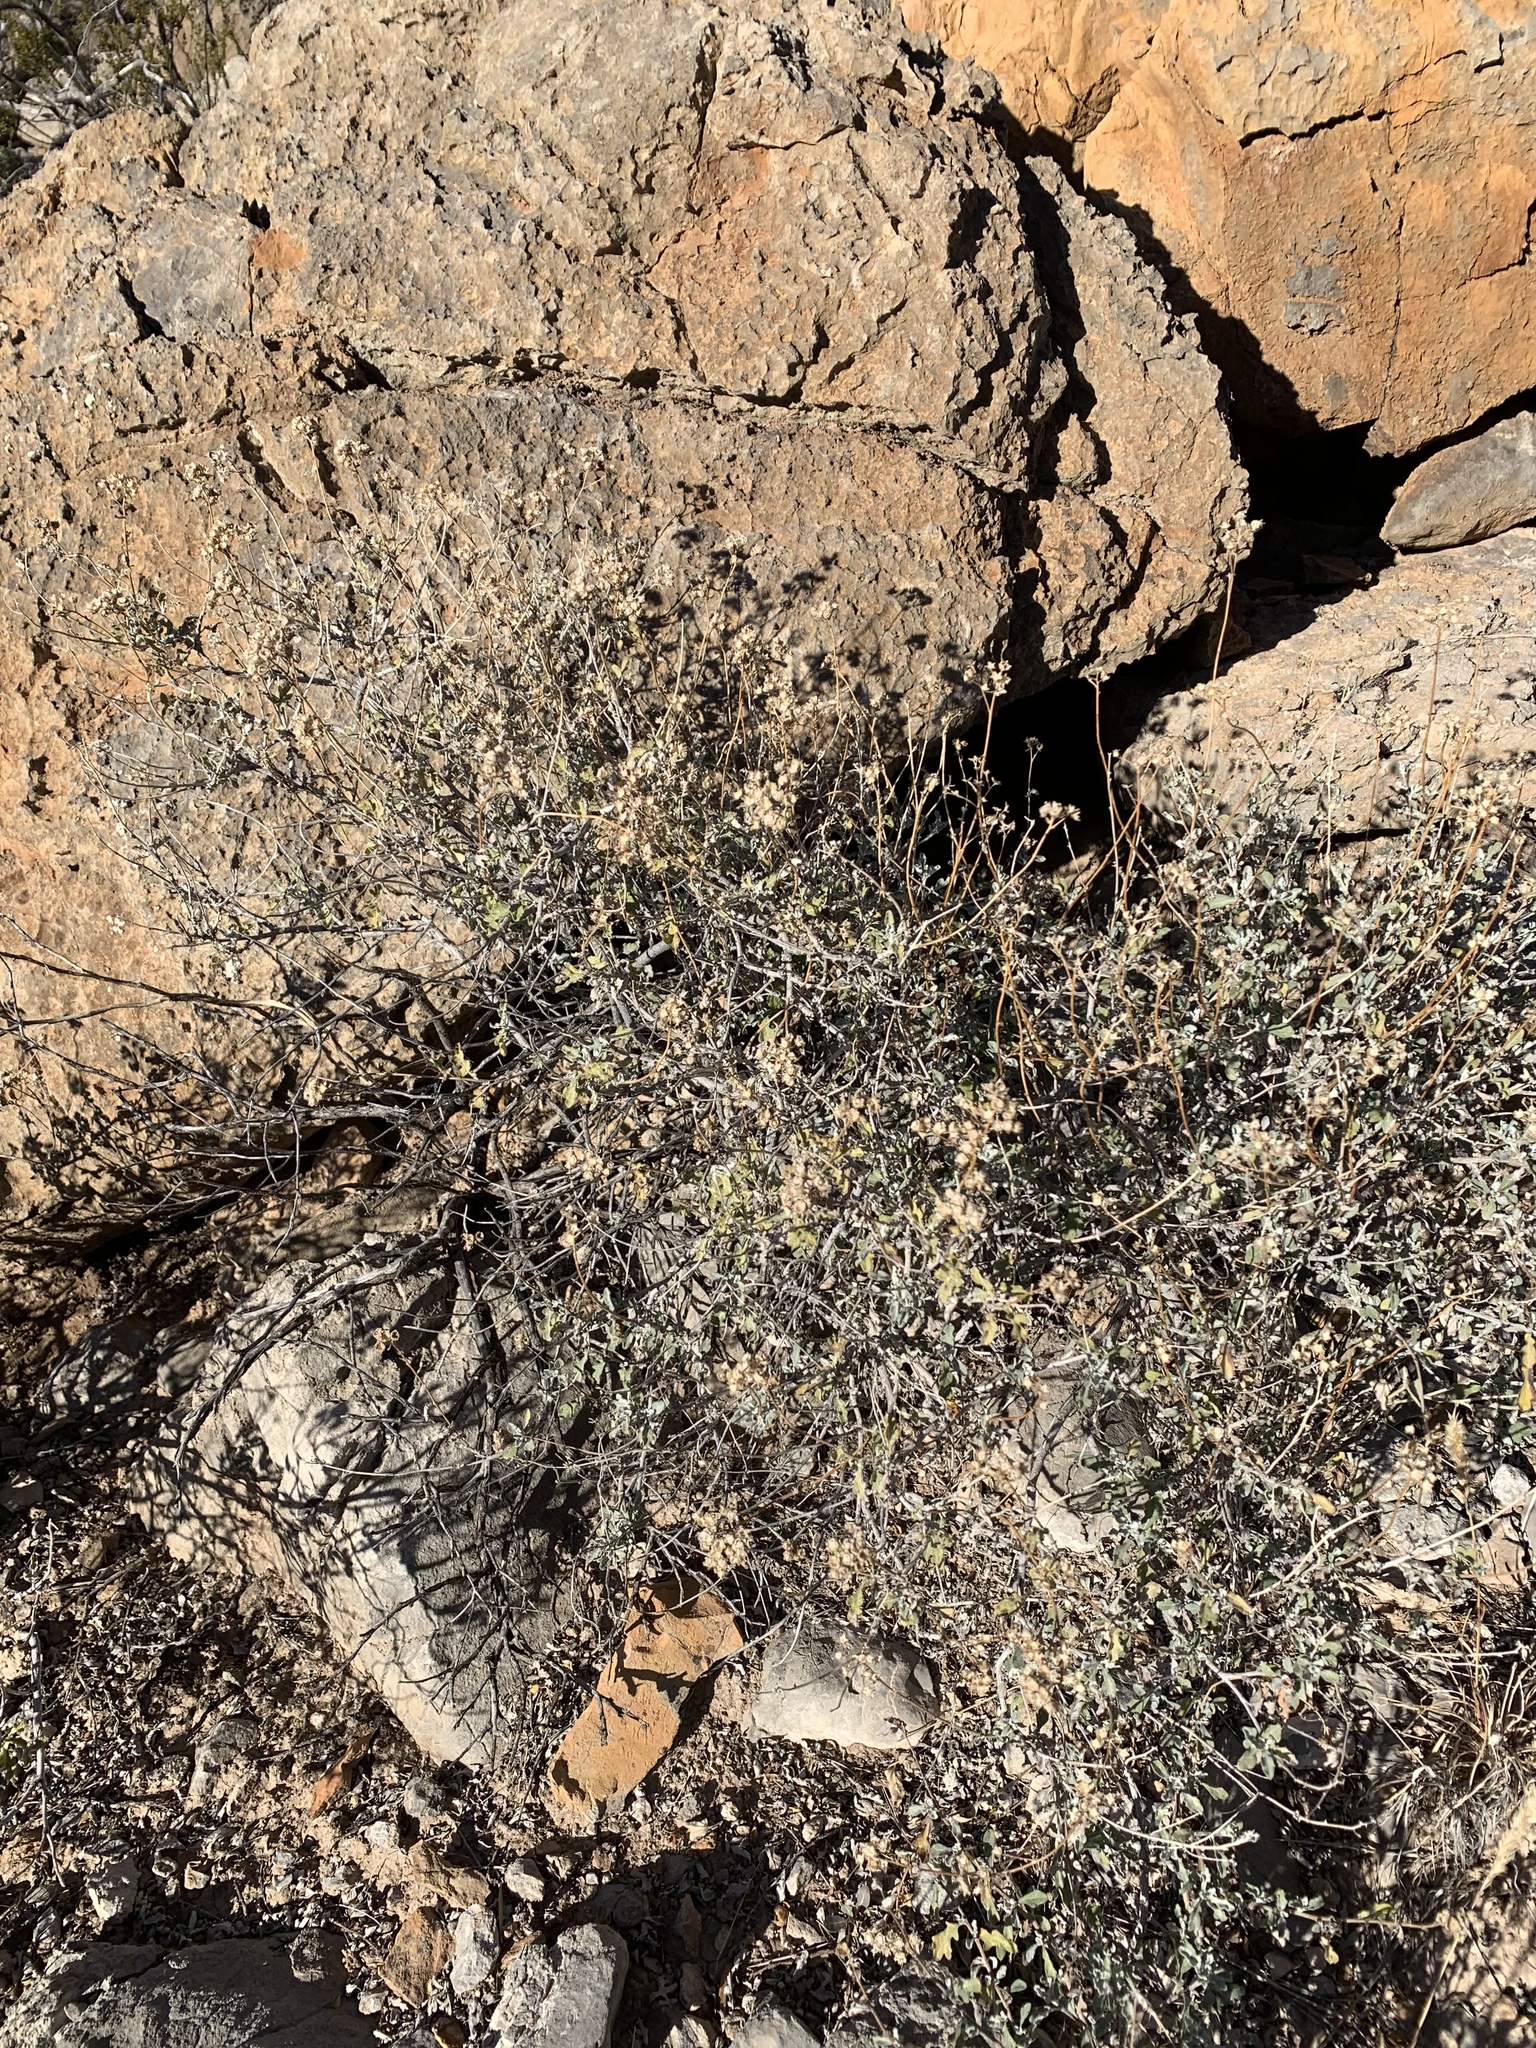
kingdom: Plantae
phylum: Tracheophyta
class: Magnoliopsida
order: Asterales
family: Asteraceae
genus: Parthenium
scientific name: Parthenium incanum
